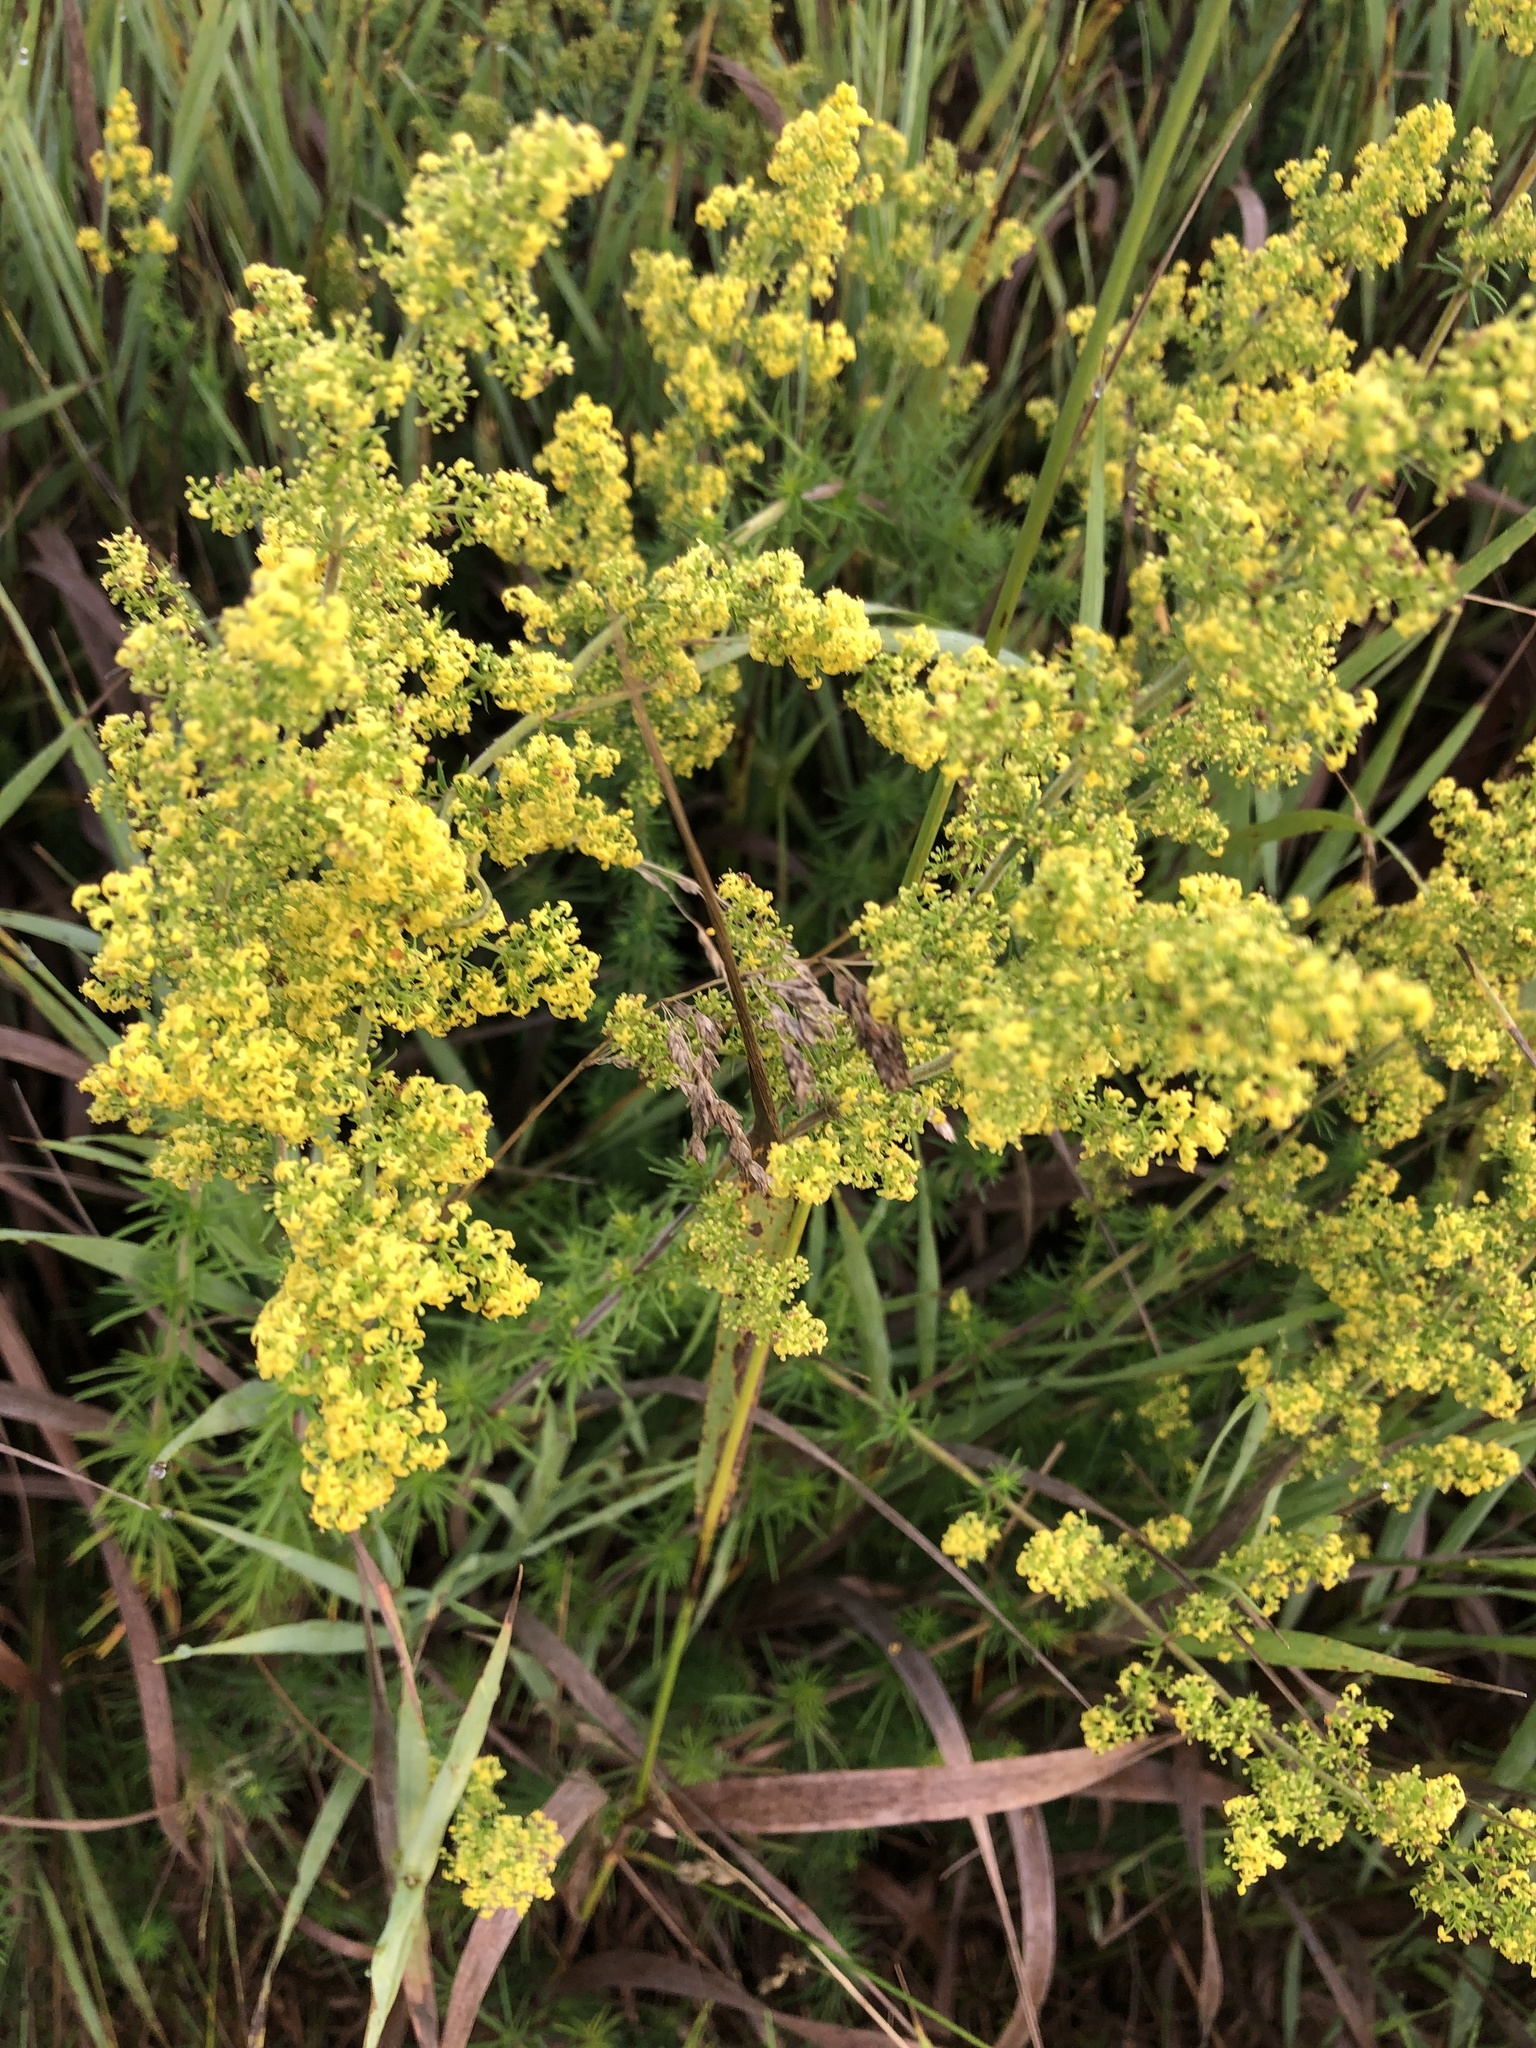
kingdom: Plantae
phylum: Tracheophyta
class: Magnoliopsida
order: Gentianales
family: Rubiaceae
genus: Galium
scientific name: Galium verum
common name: Lady's bedstraw
